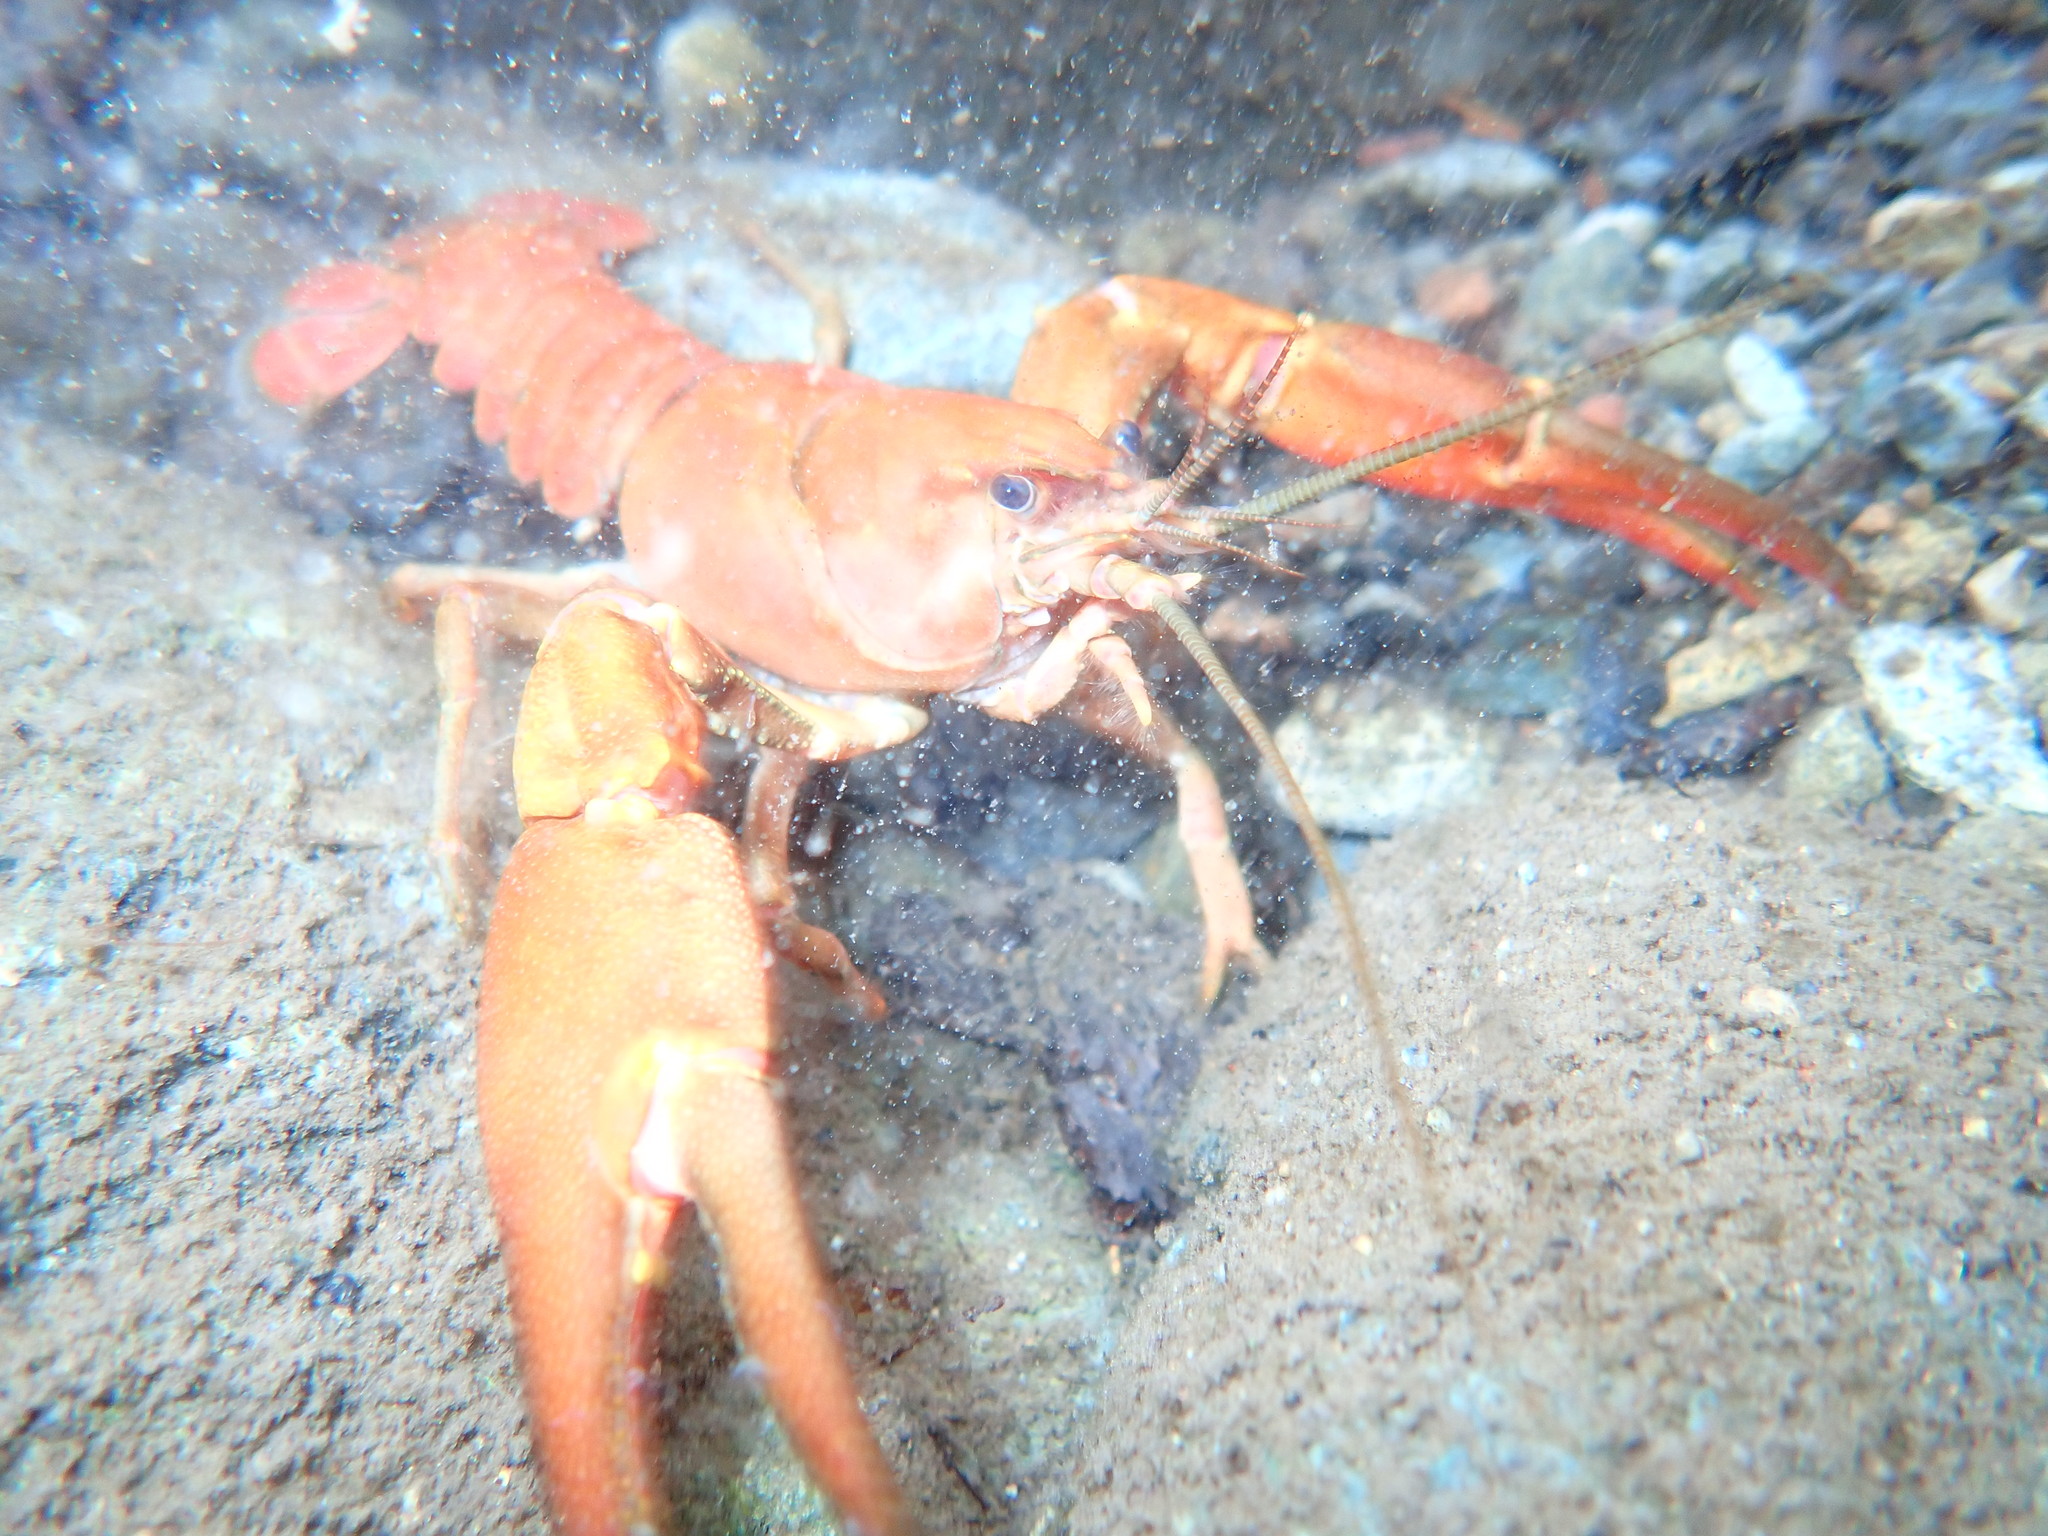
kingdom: Animalia
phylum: Arthropoda
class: Malacostraca
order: Decapoda
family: Astacidae
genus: Pacifastacus
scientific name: Pacifastacus leniusculus
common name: Signal crayfish
